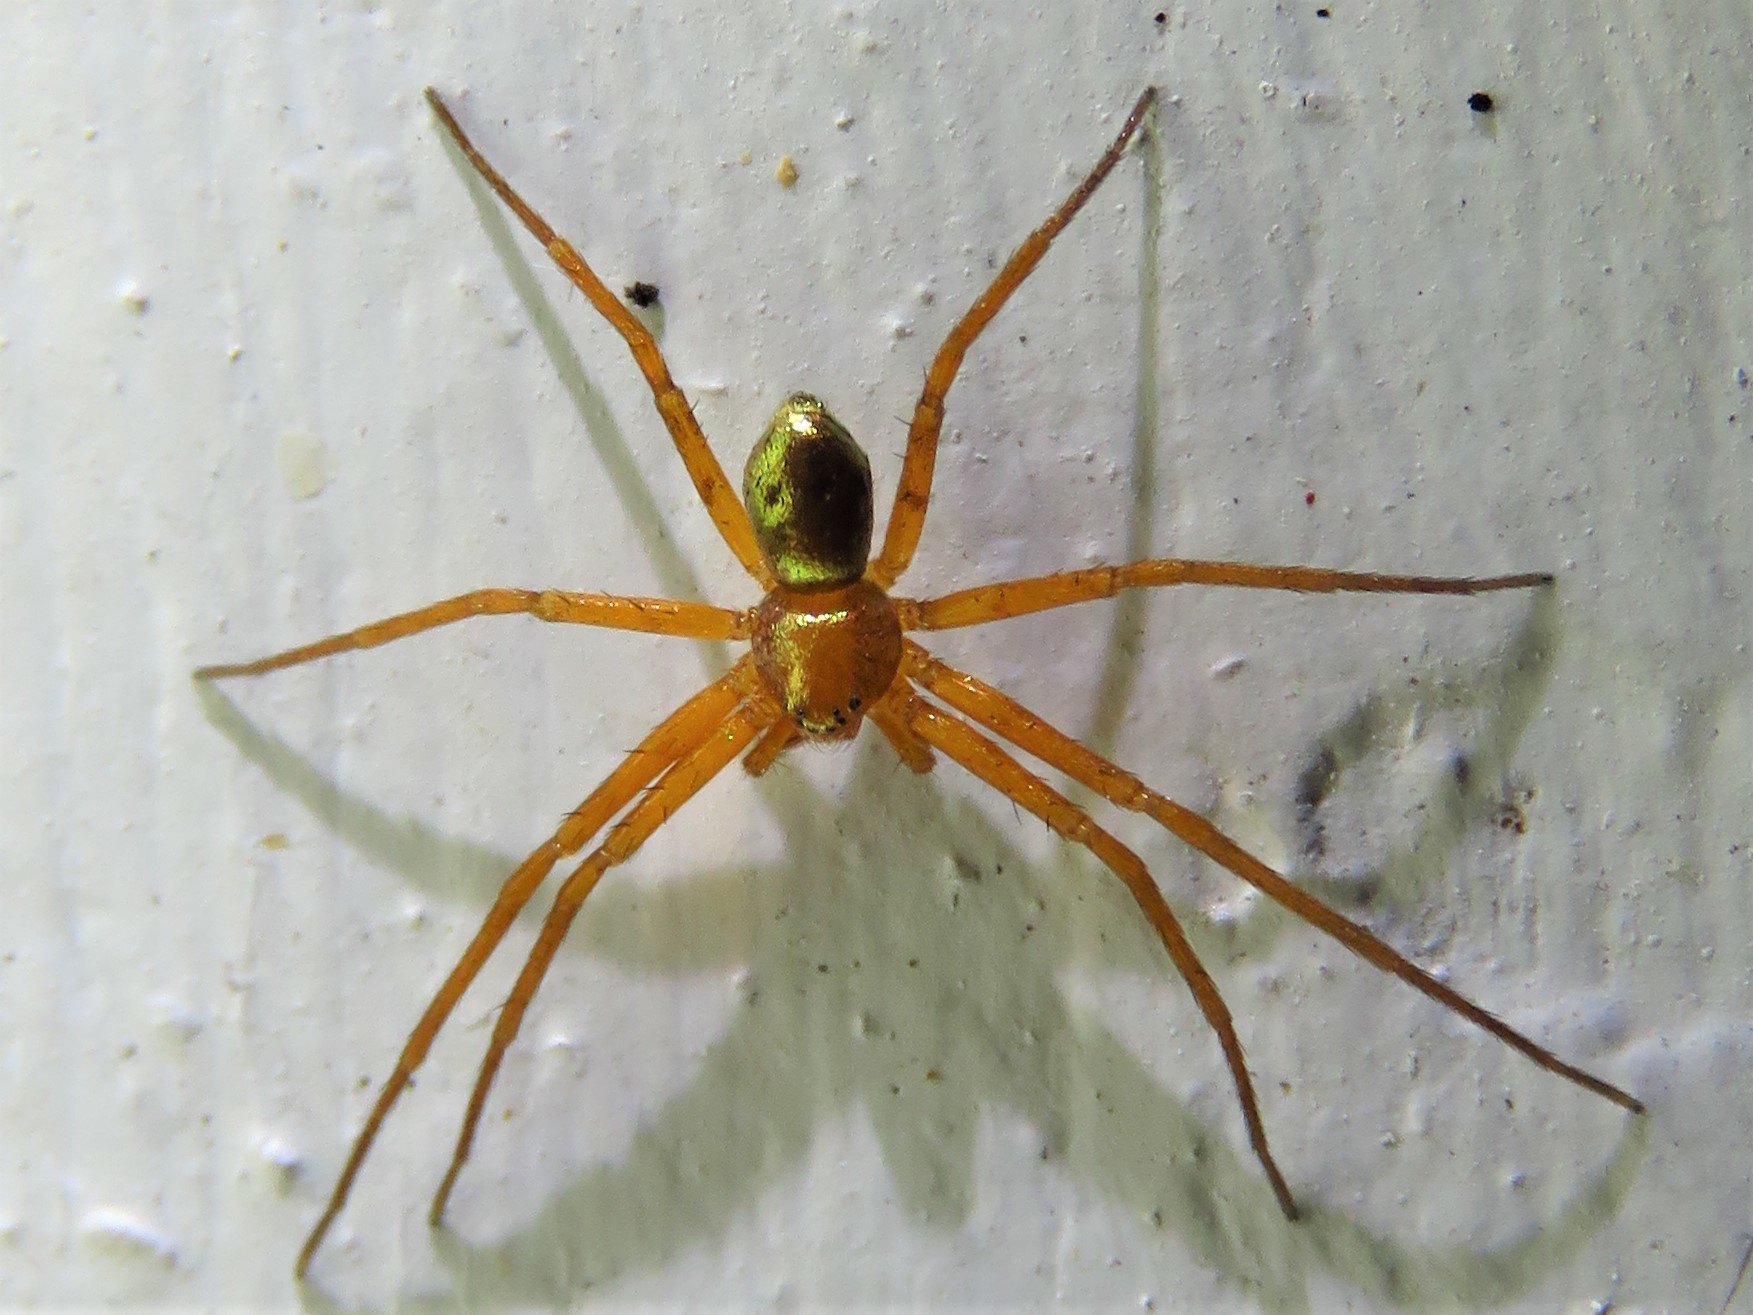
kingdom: Animalia
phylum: Arthropoda
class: Arachnida
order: Araneae
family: Philodromidae
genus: Philodromus
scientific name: Philodromus marxi
